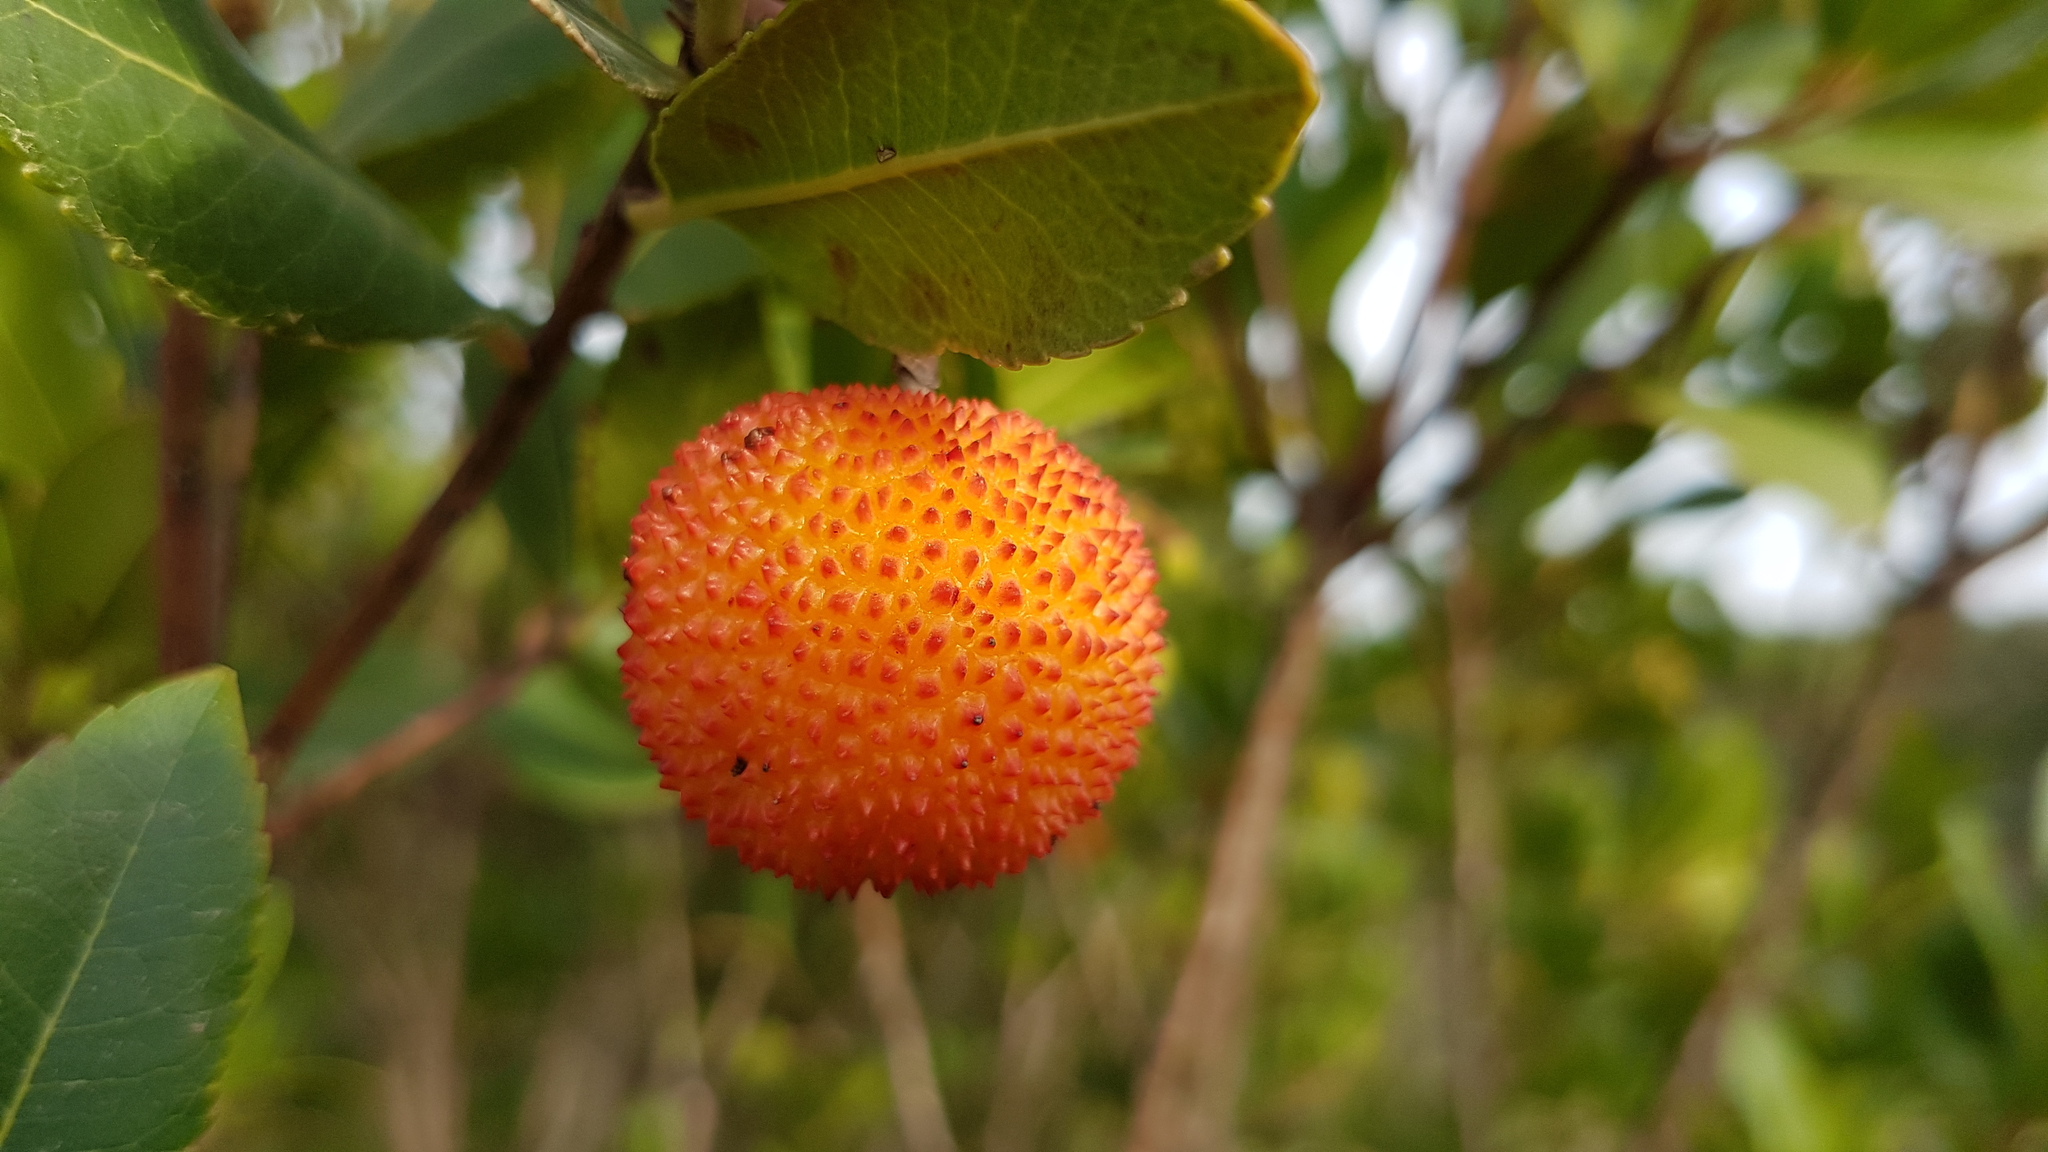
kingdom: Plantae
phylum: Tracheophyta
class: Magnoliopsida
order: Ericales
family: Ericaceae
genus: Arbutus
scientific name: Arbutus unedo
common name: Strawberry-tree
